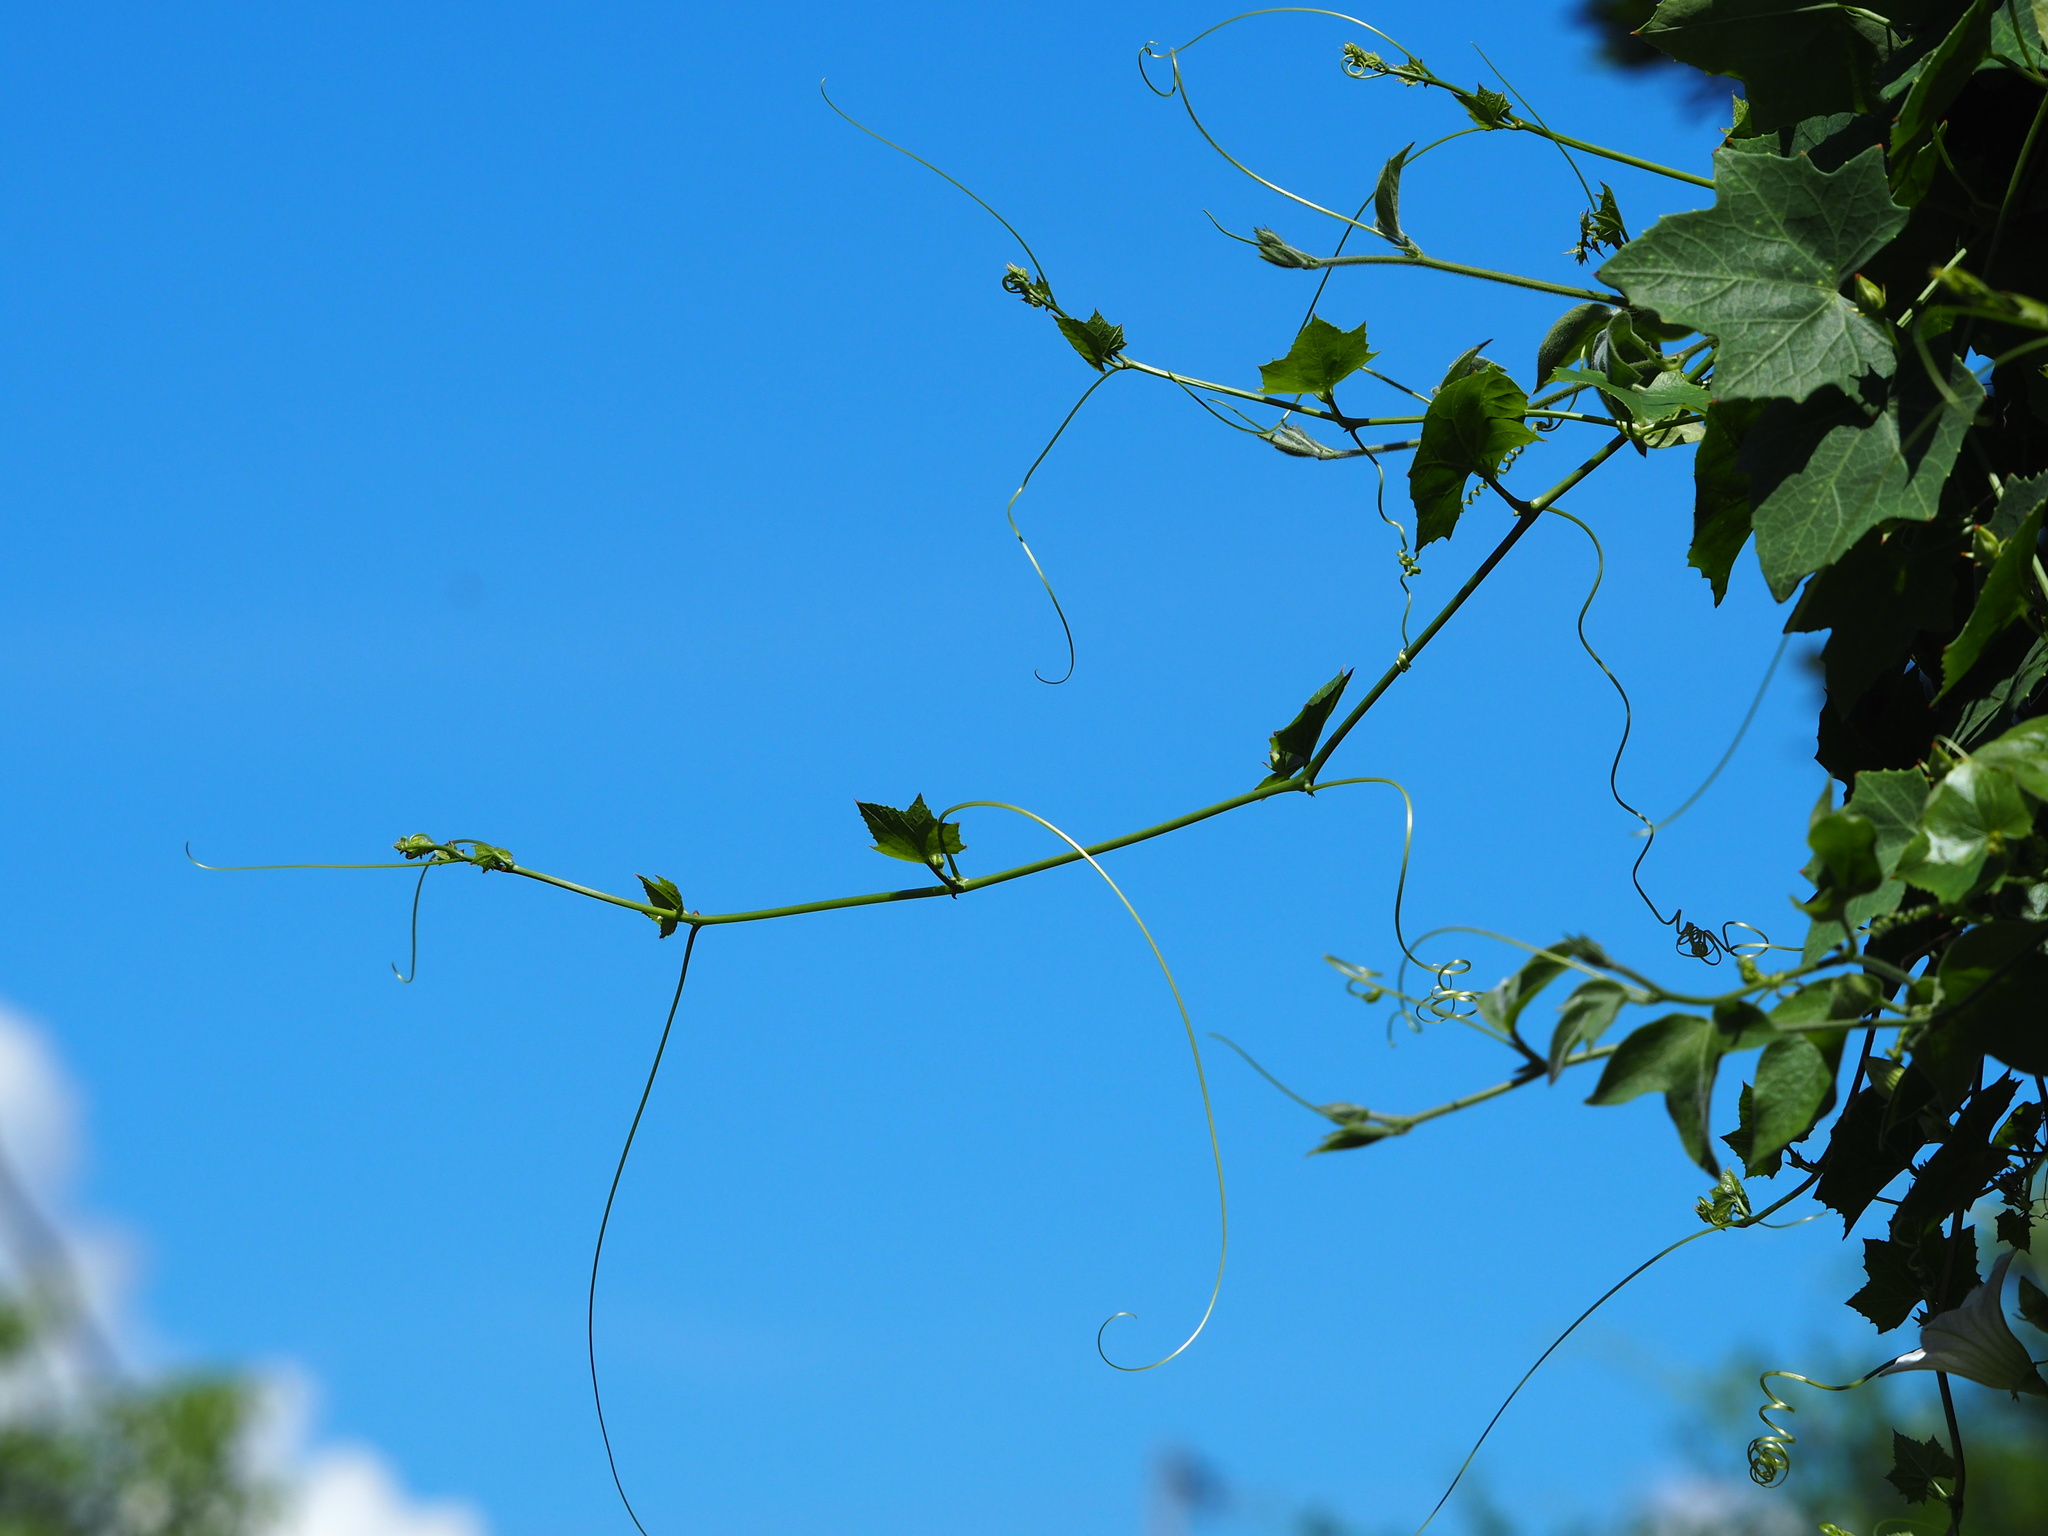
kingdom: Plantae
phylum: Tracheophyta
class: Magnoliopsida
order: Cucurbitales
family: Cucurbitaceae
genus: Coccinia
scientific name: Coccinia grandis
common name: Ivy gourd
